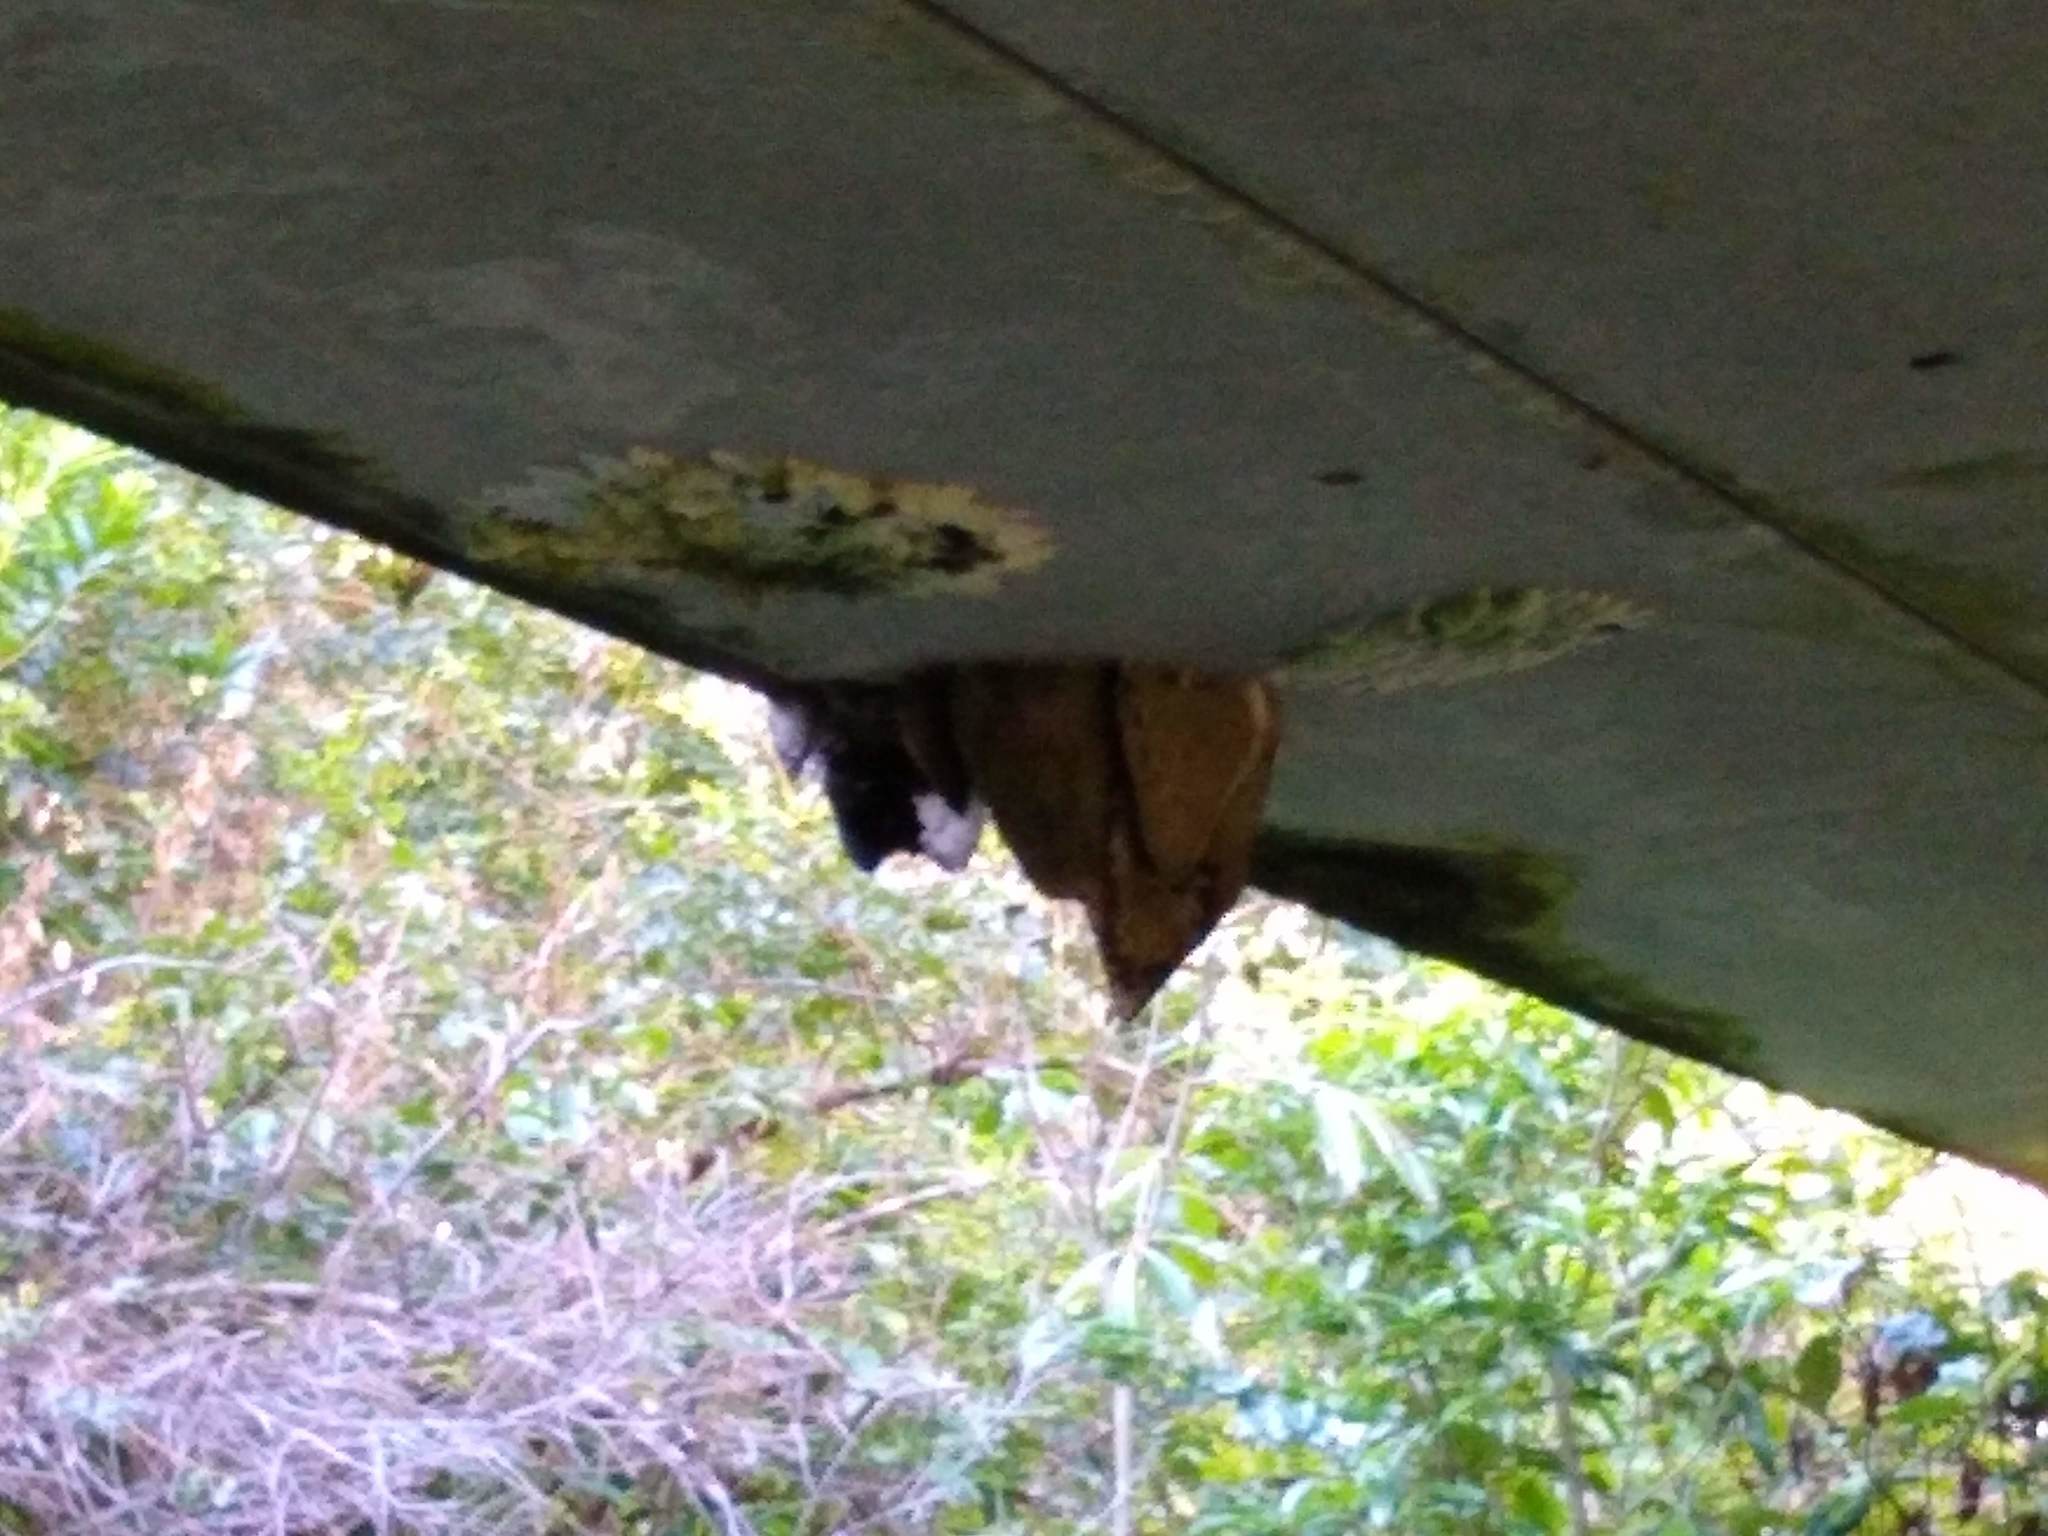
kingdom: Animalia
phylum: Arthropoda
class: Insecta
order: Hymenoptera
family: Apidae
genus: Apis
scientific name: Apis mellifera
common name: Honey bee
